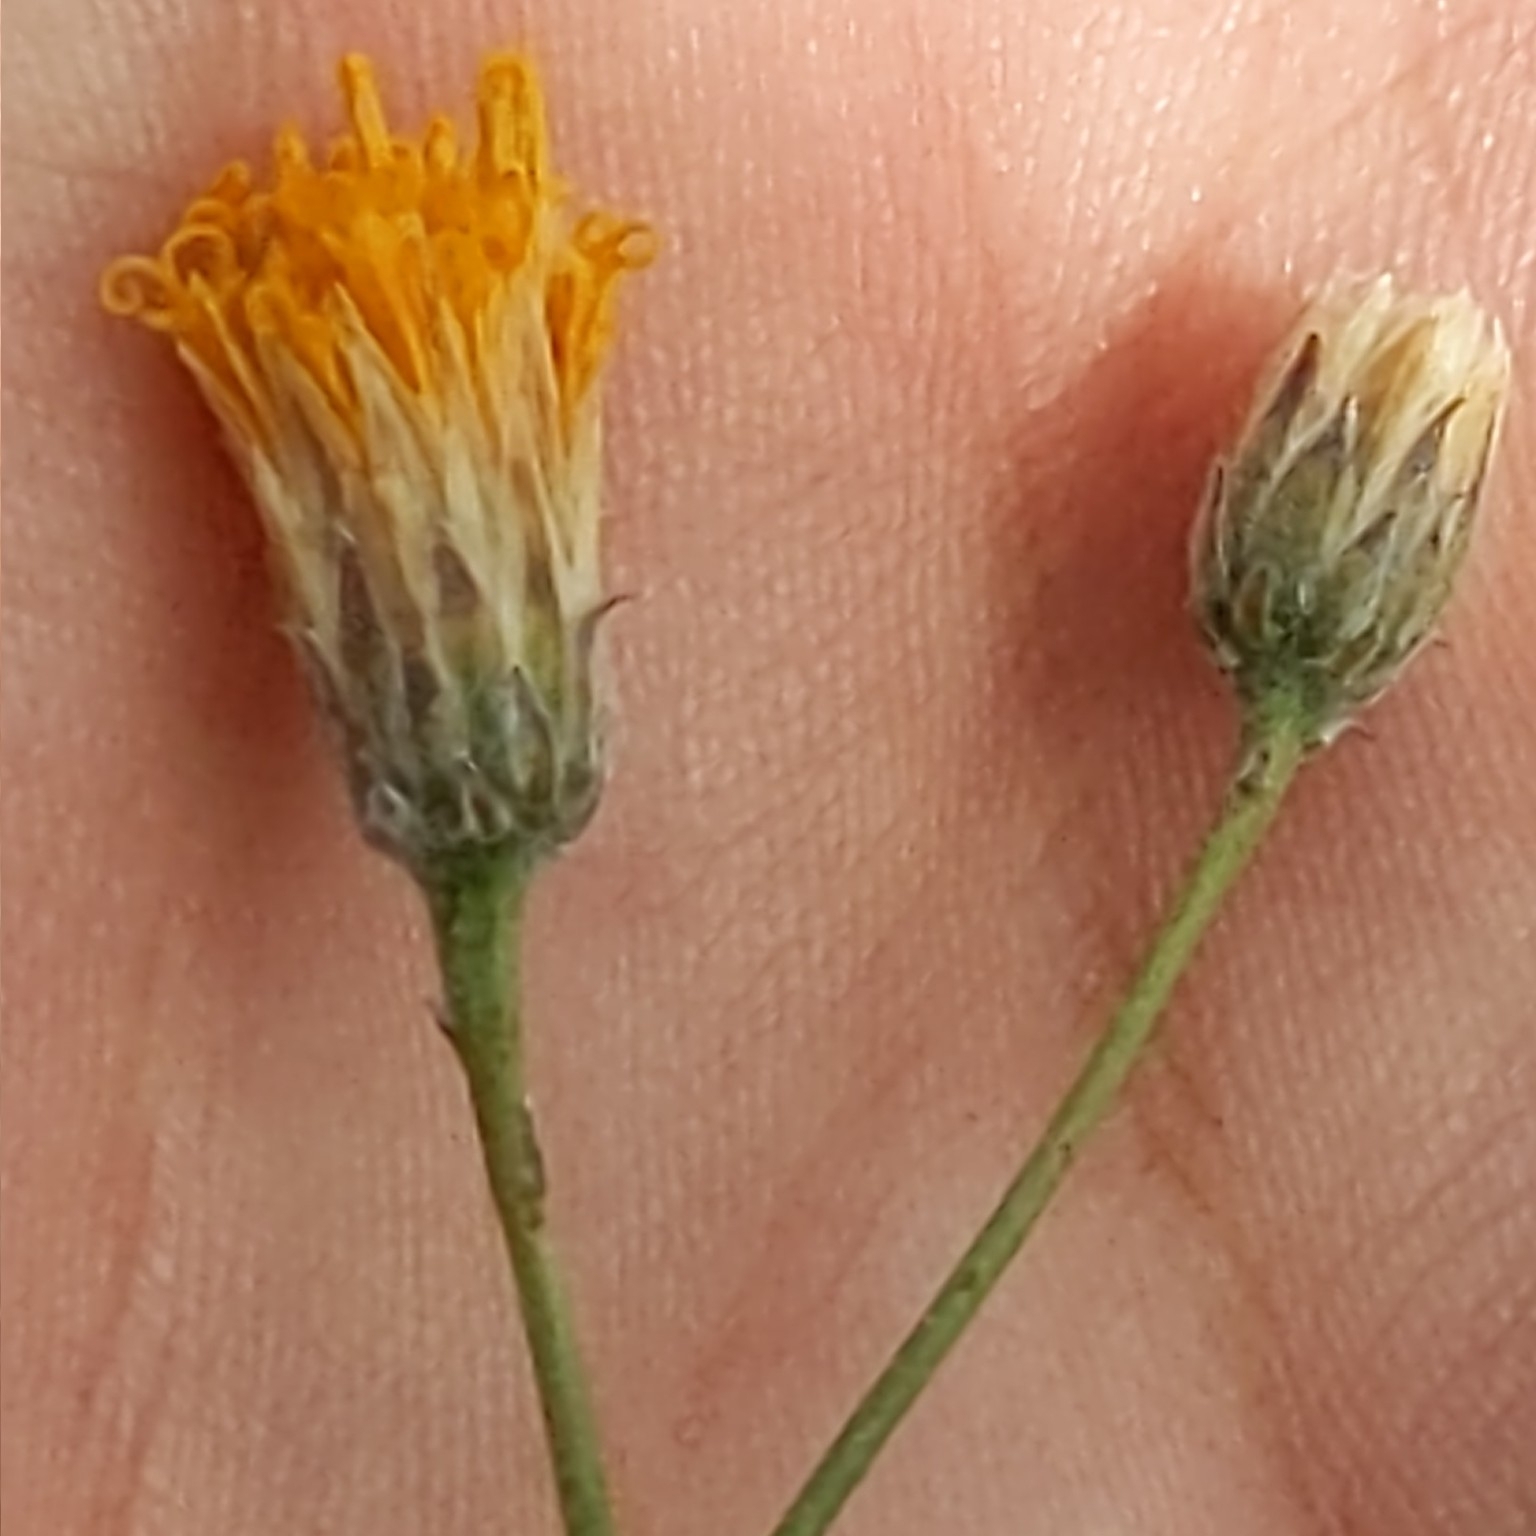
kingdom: Plantae
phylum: Tracheophyta
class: Magnoliopsida
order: Asterales
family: Asteraceae
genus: Bebbia
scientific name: Bebbia juncea
